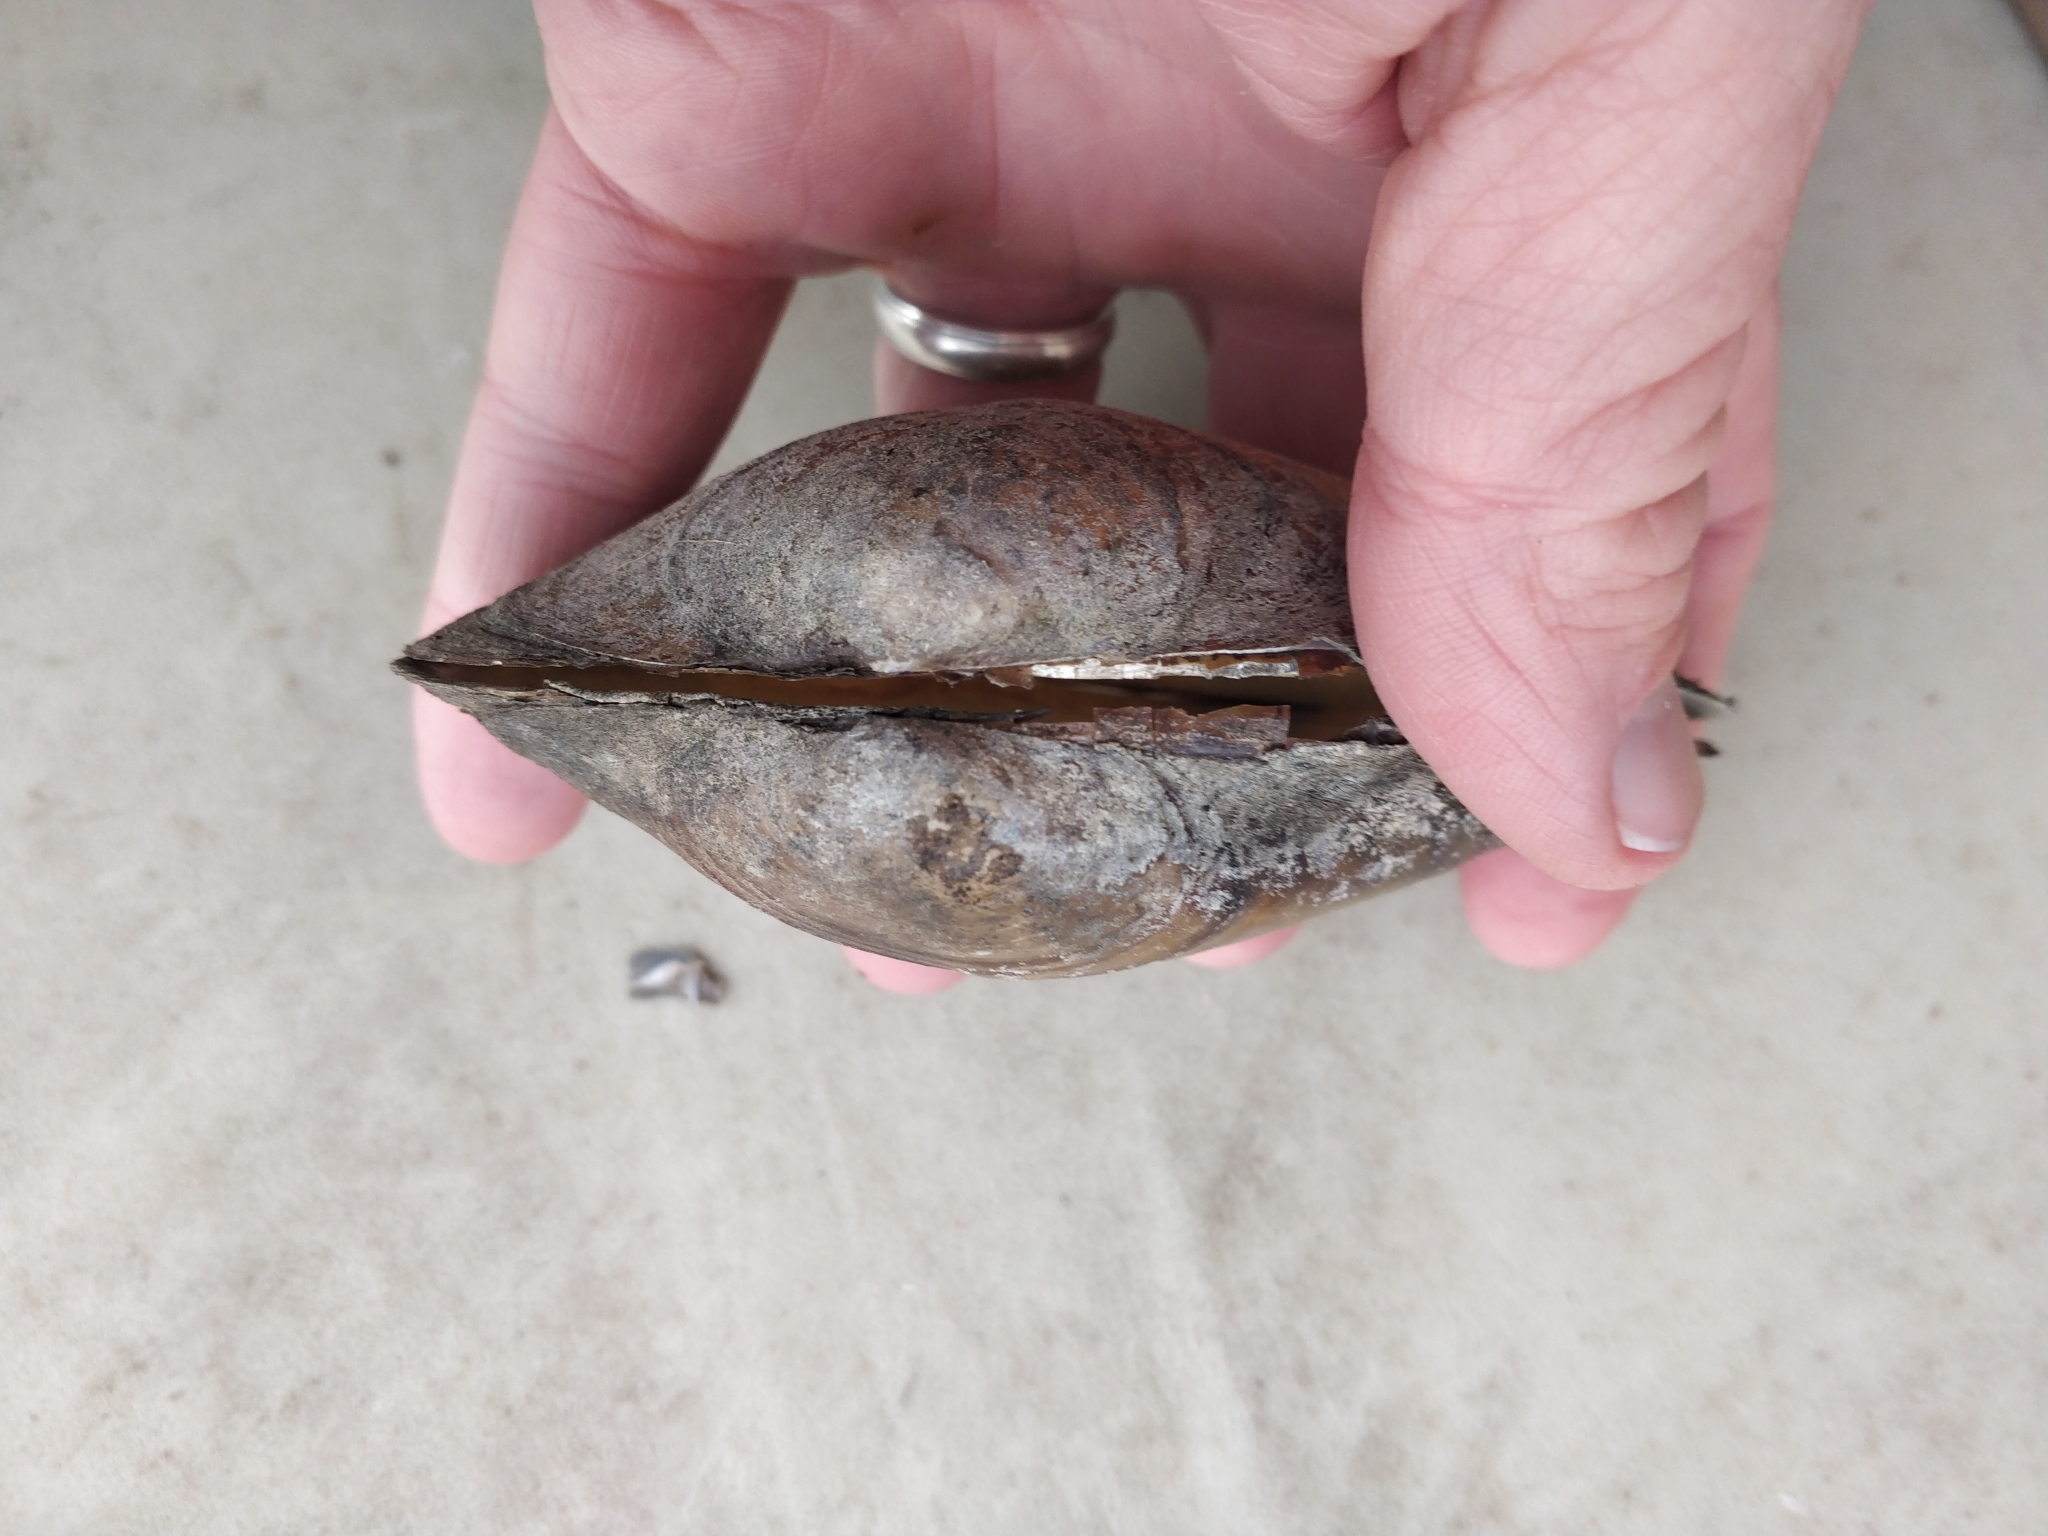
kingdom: Animalia
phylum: Mollusca
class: Bivalvia
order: Unionida
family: Unionidae
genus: Pyganodon
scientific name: Pyganodon grandis
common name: Giant floater
